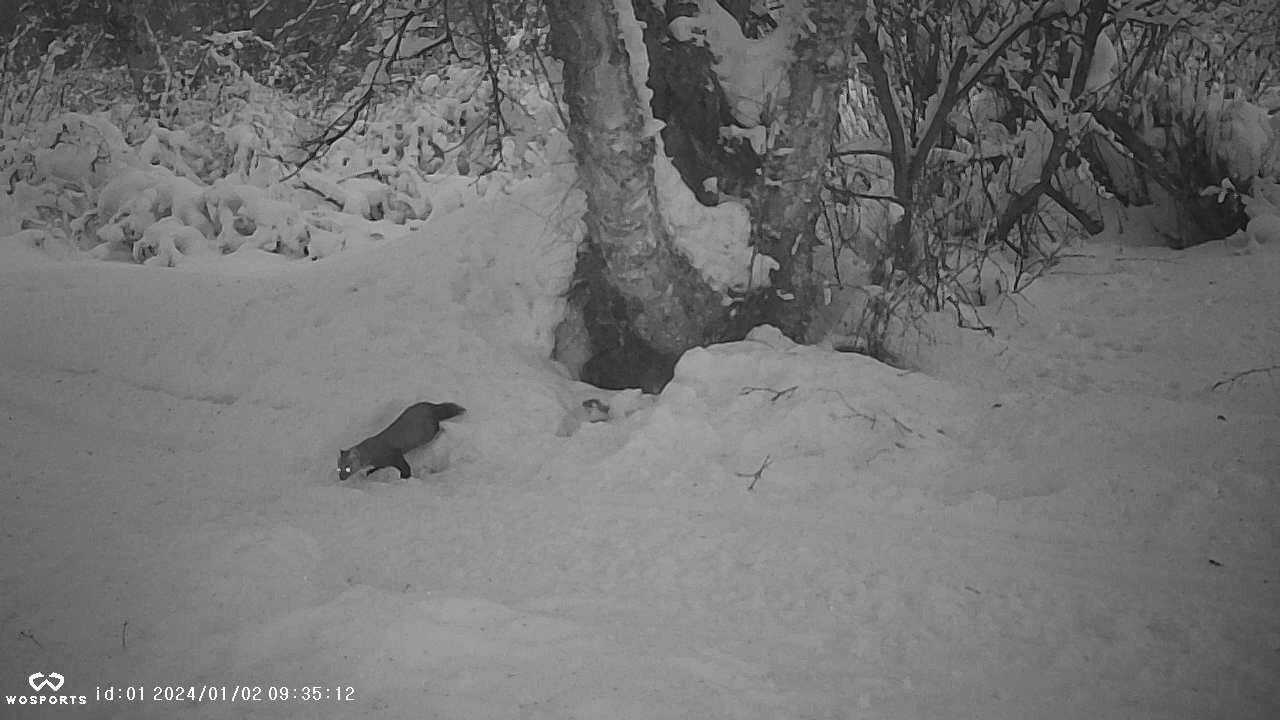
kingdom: Animalia
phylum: Chordata
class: Mammalia
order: Carnivora
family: Mustelidae
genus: Martes
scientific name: Martes americana
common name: American marten
